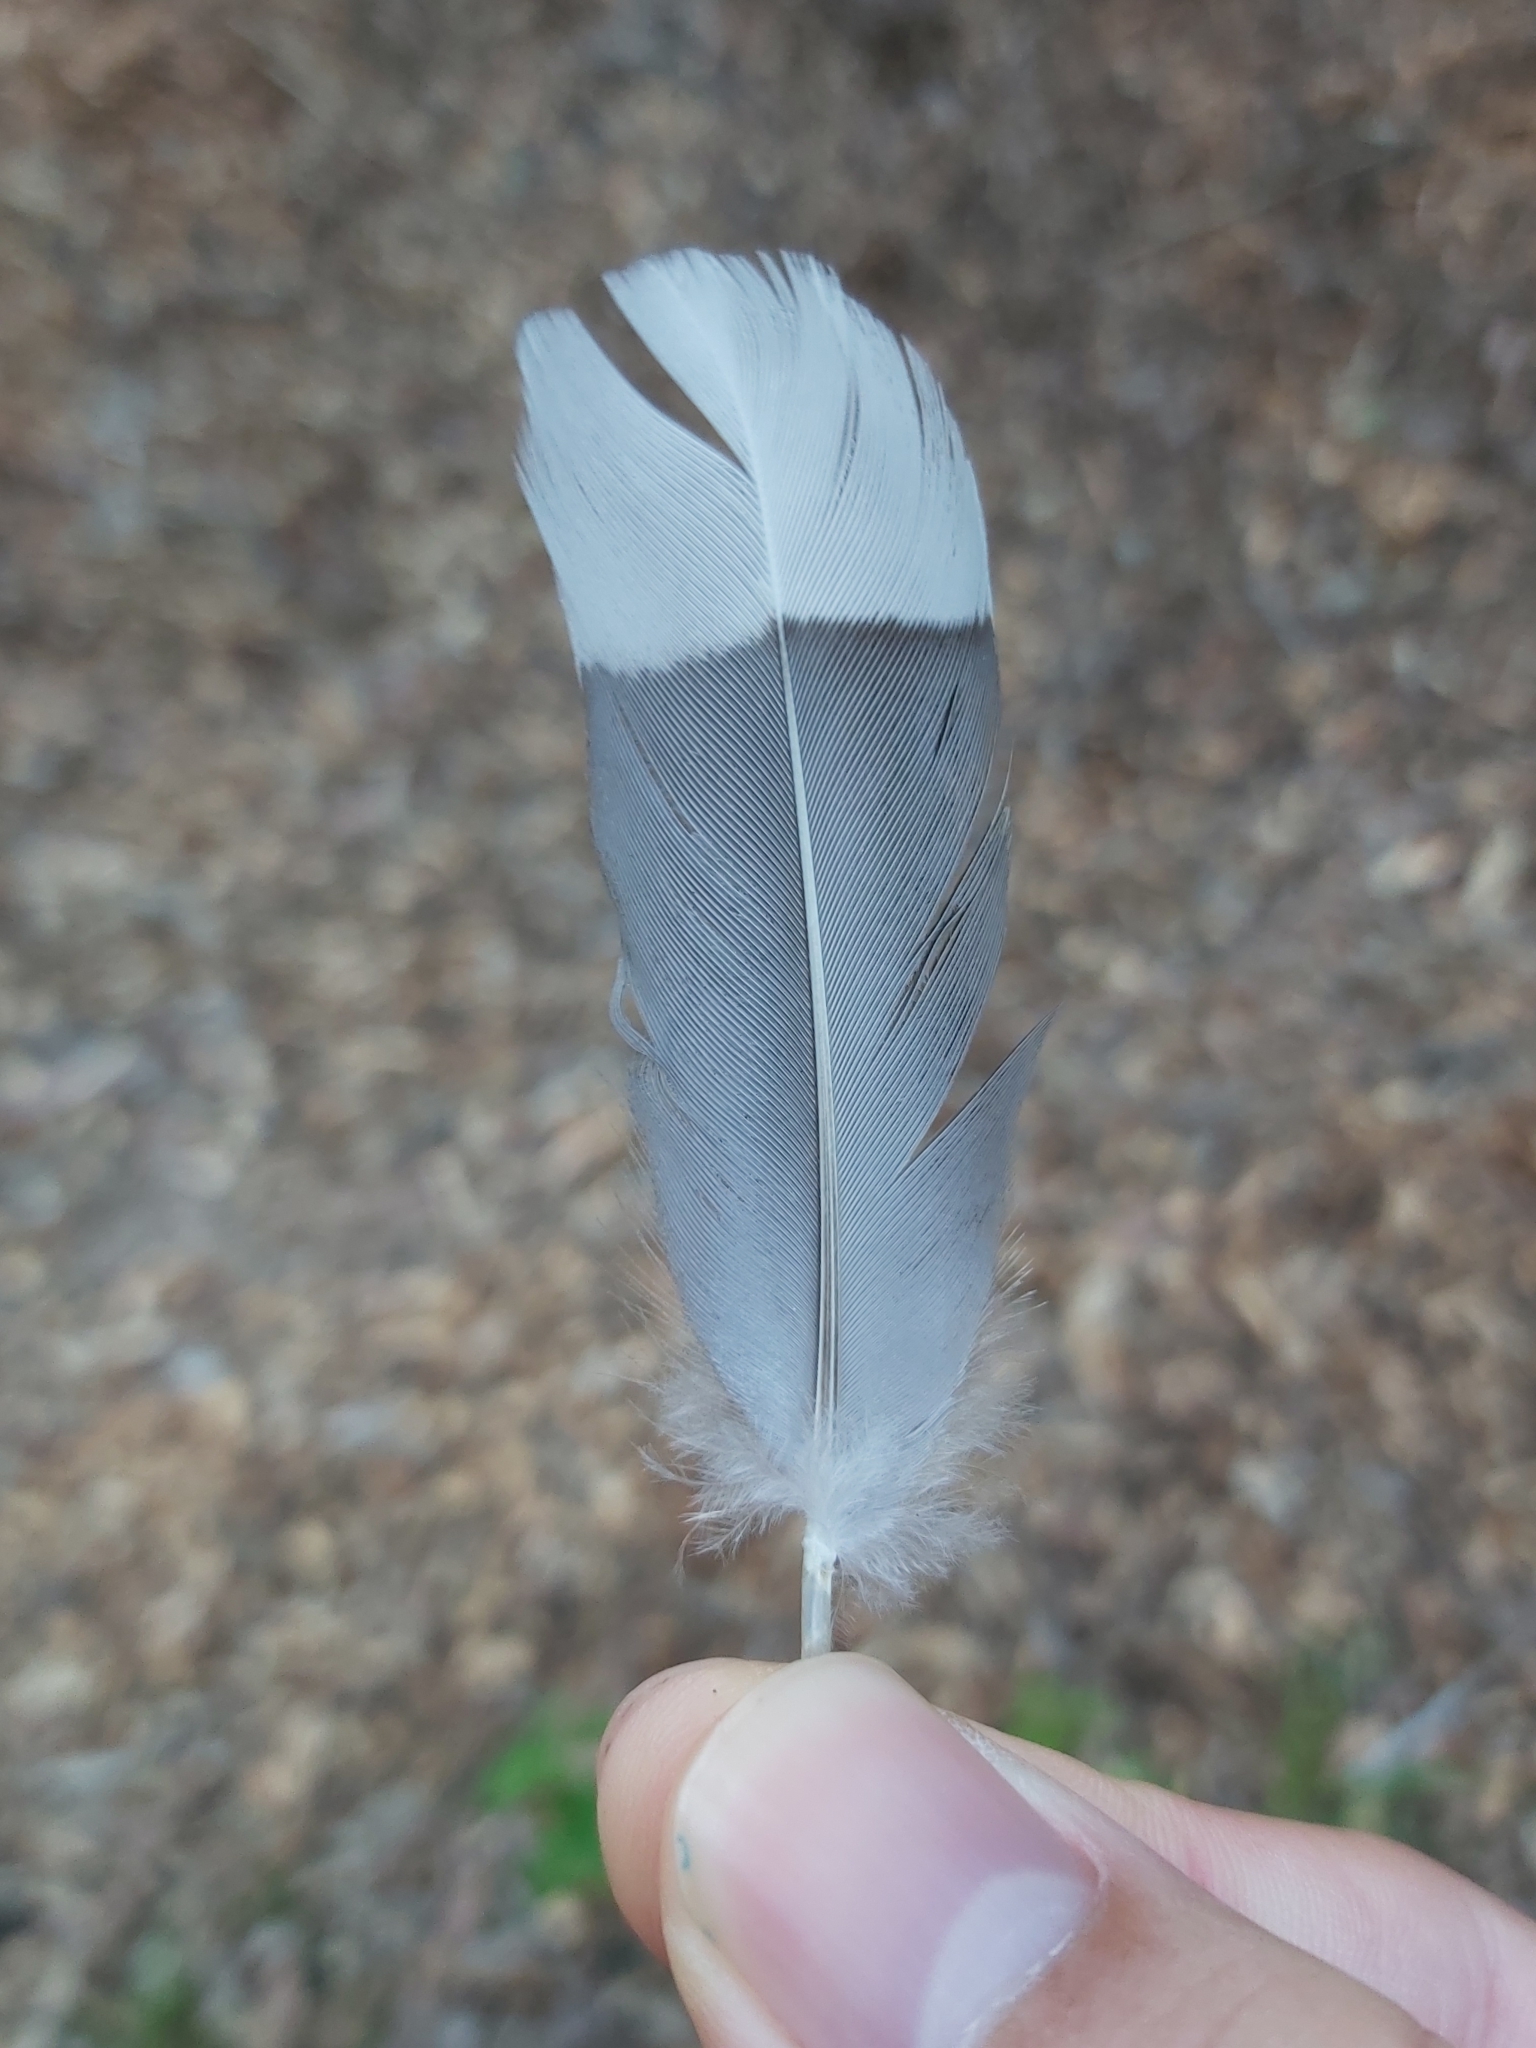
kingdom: Animalia
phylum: Chordata
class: Aves
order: Anseriformes
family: Anatidae
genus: Chenonetta
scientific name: Chenonetta jubata
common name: Maned duck
